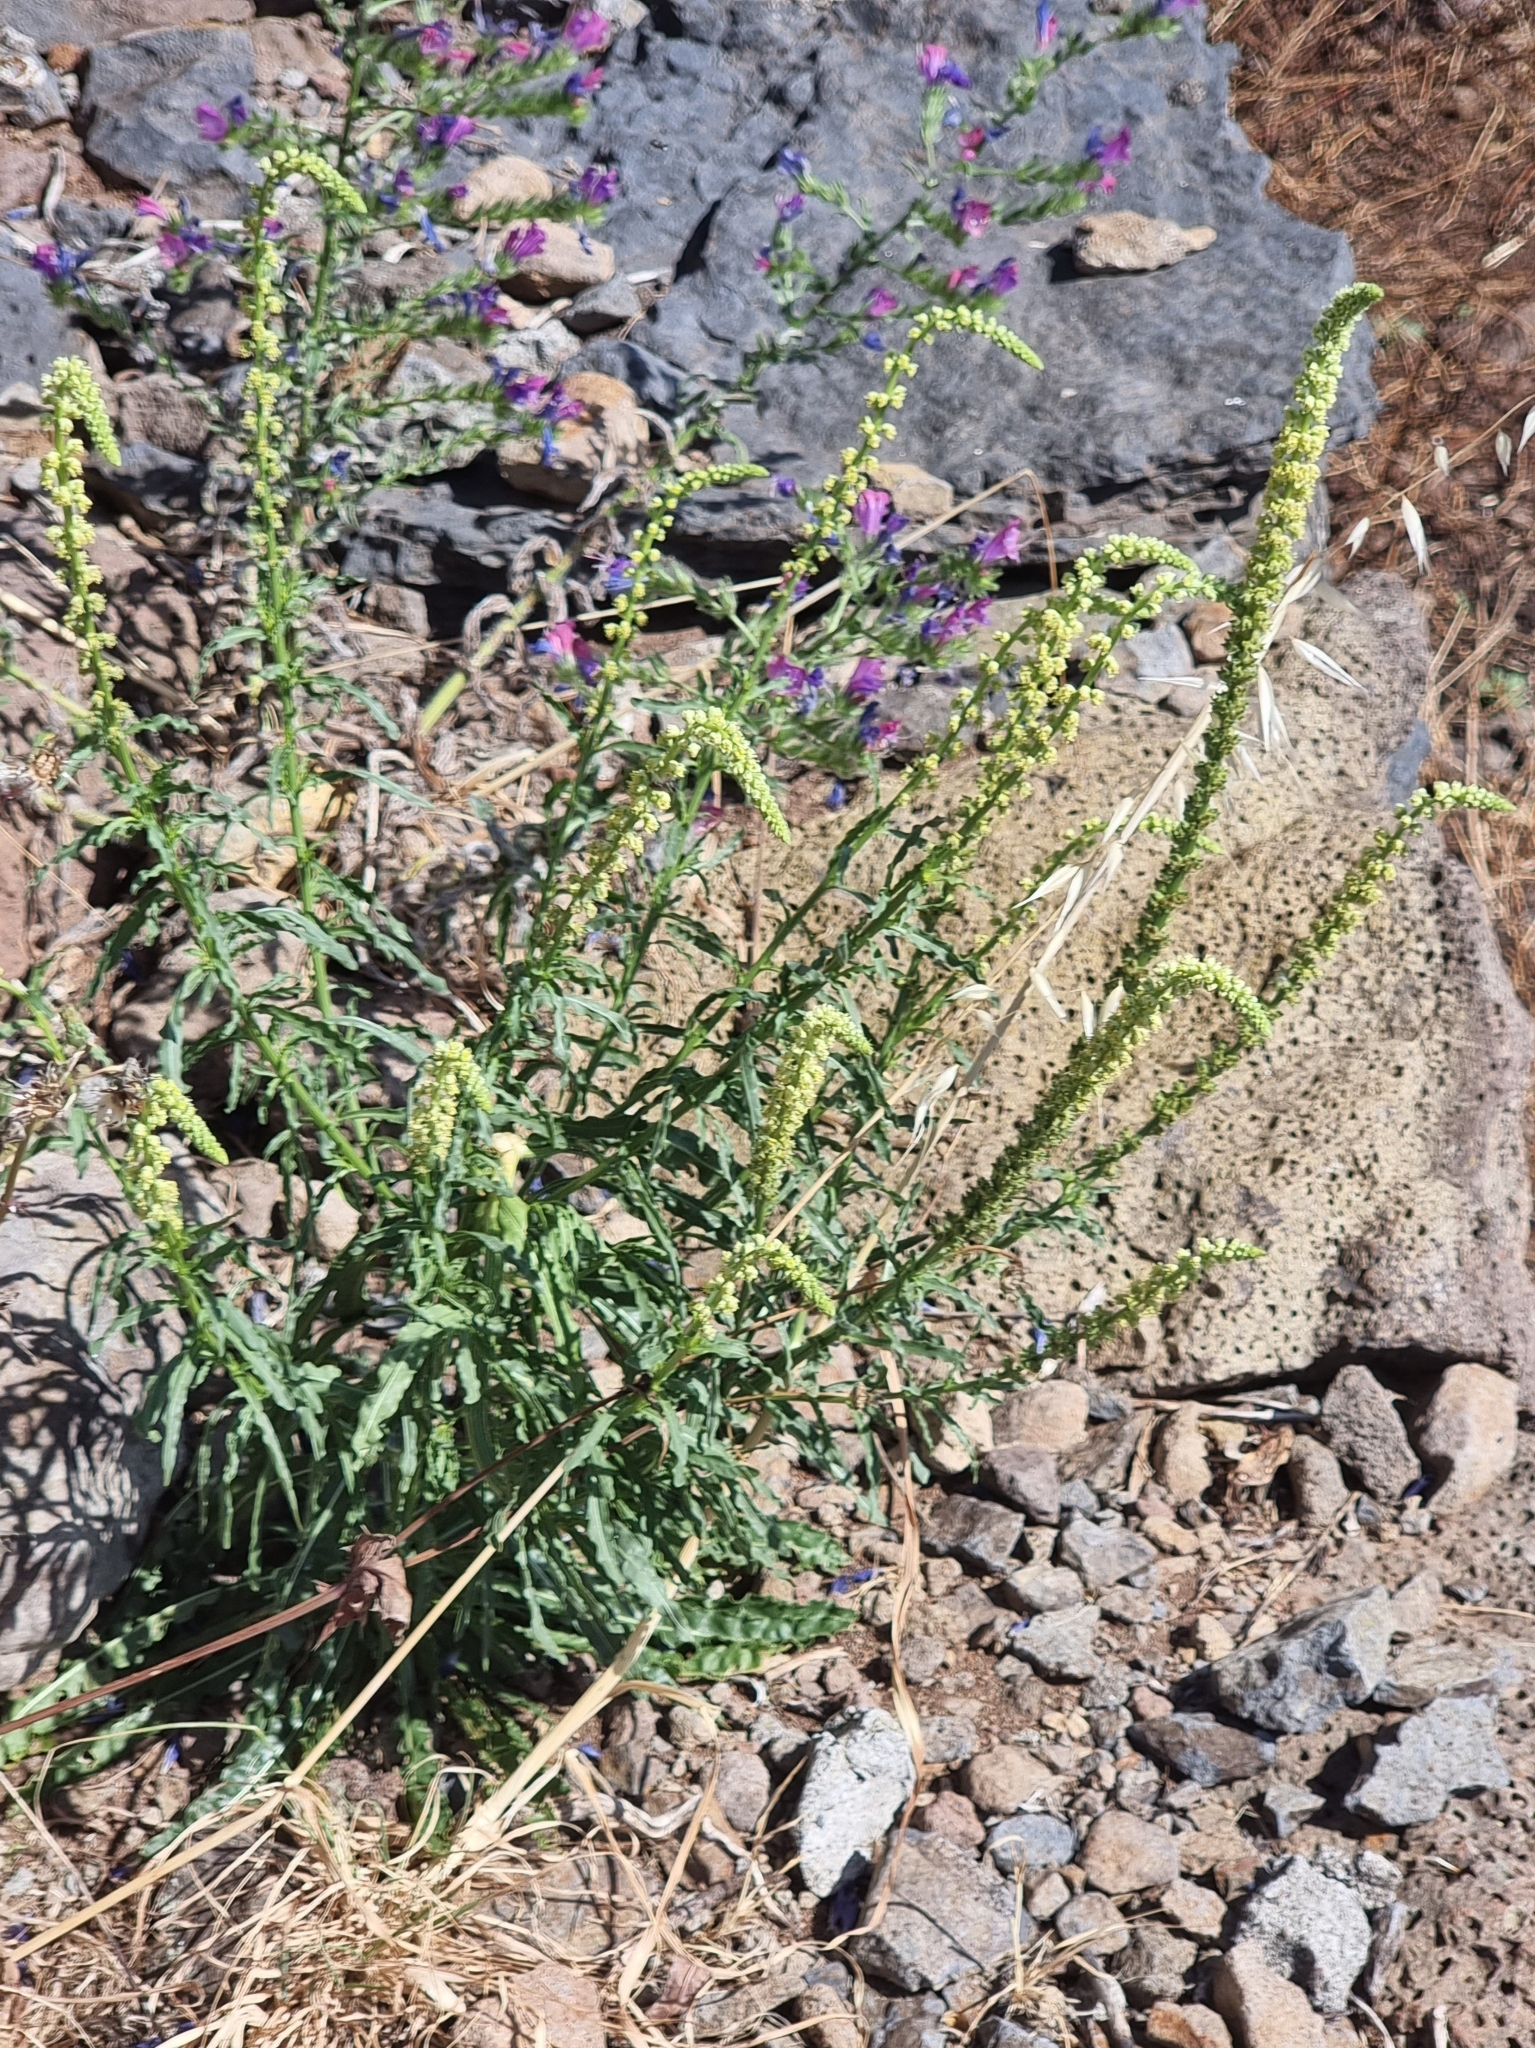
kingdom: Plantae
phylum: Tracheophyta
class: Magnoliopsida
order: Brassicales
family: Resedaceae
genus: Reseda
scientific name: Reseda luteola
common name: Weld
